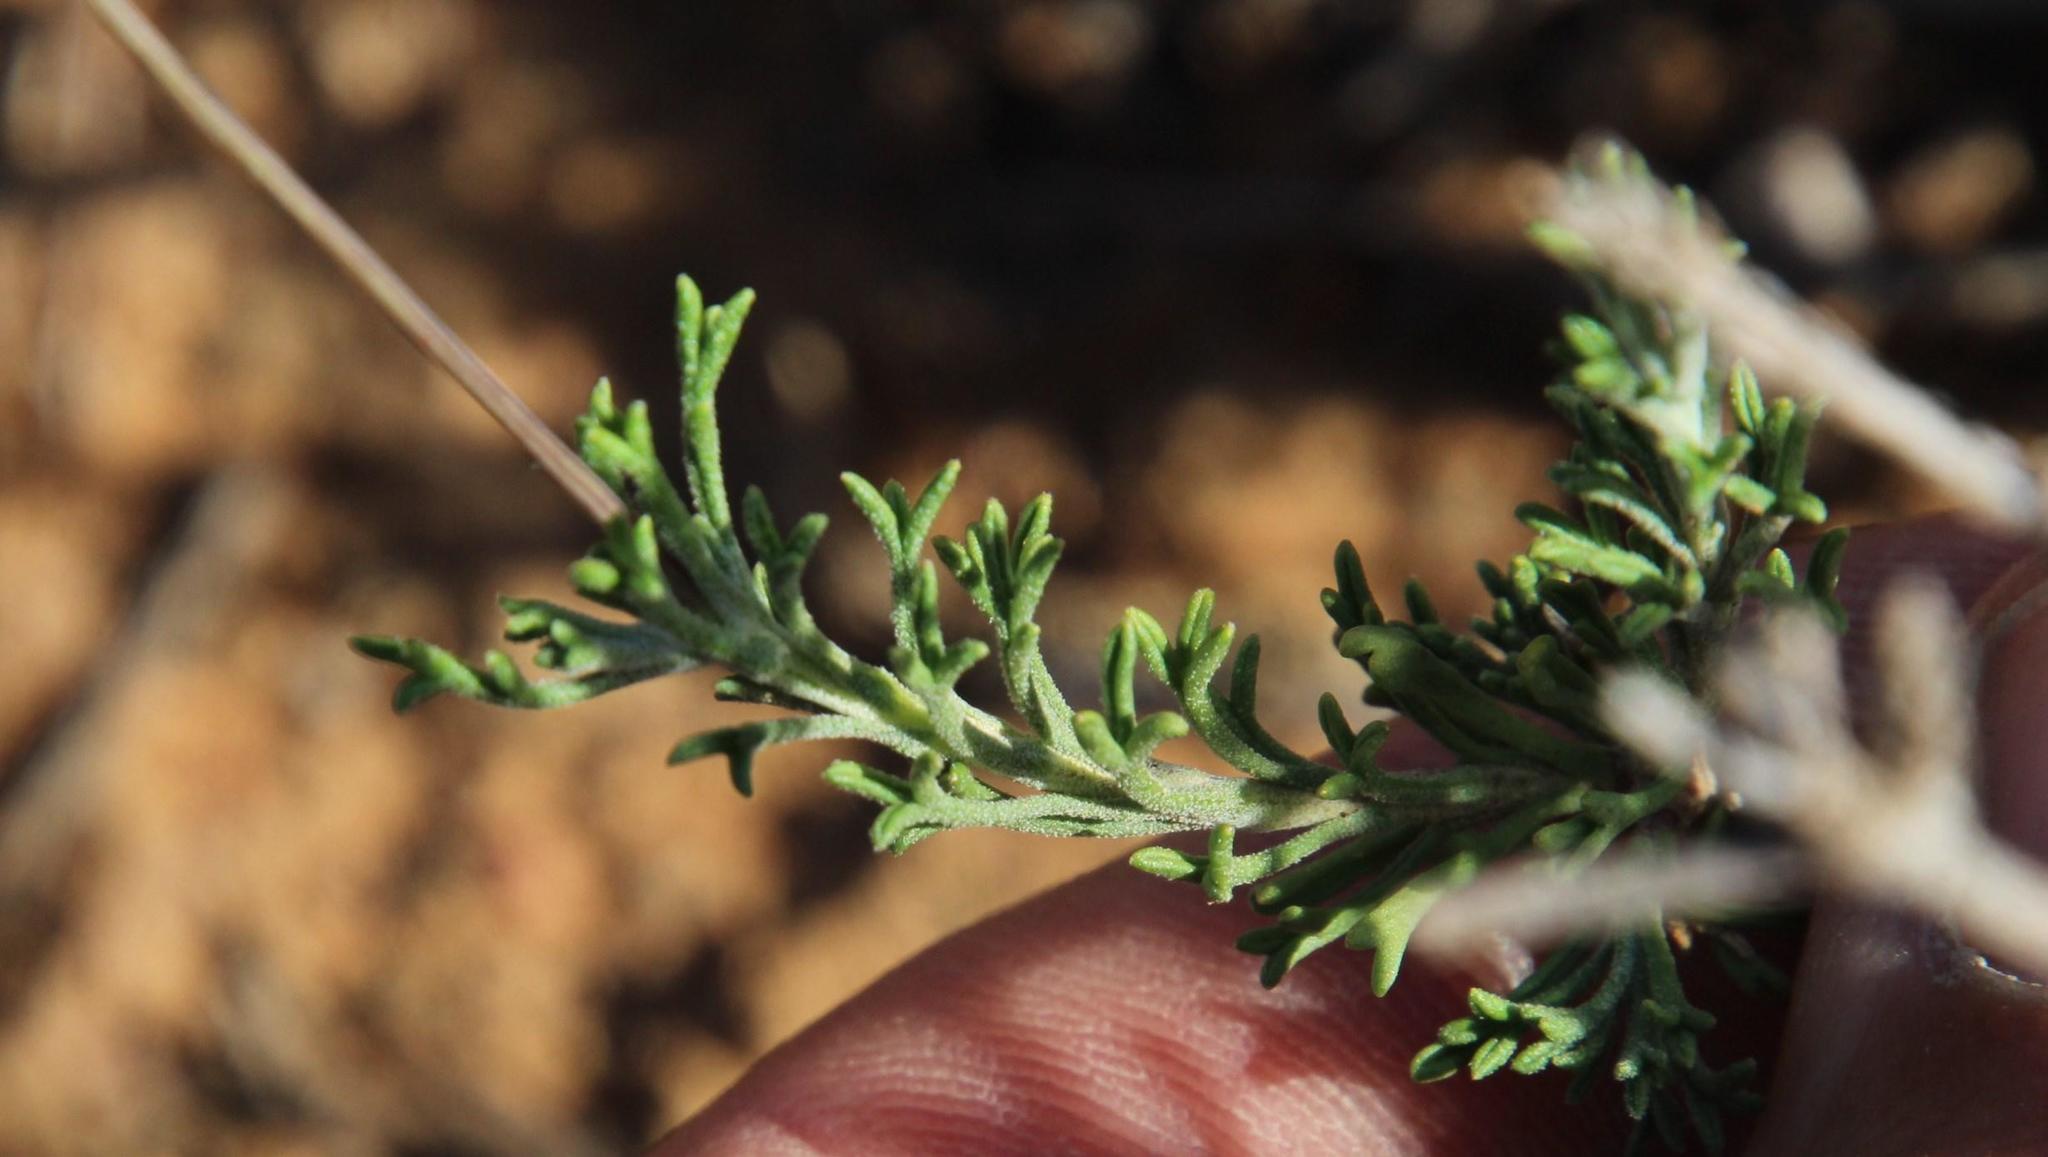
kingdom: Plantae
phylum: Tracheophyta
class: Magnoliopsida
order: Asterales
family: Asteraceae
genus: Pentzia
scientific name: Pentzia incana
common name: African sheepbush
